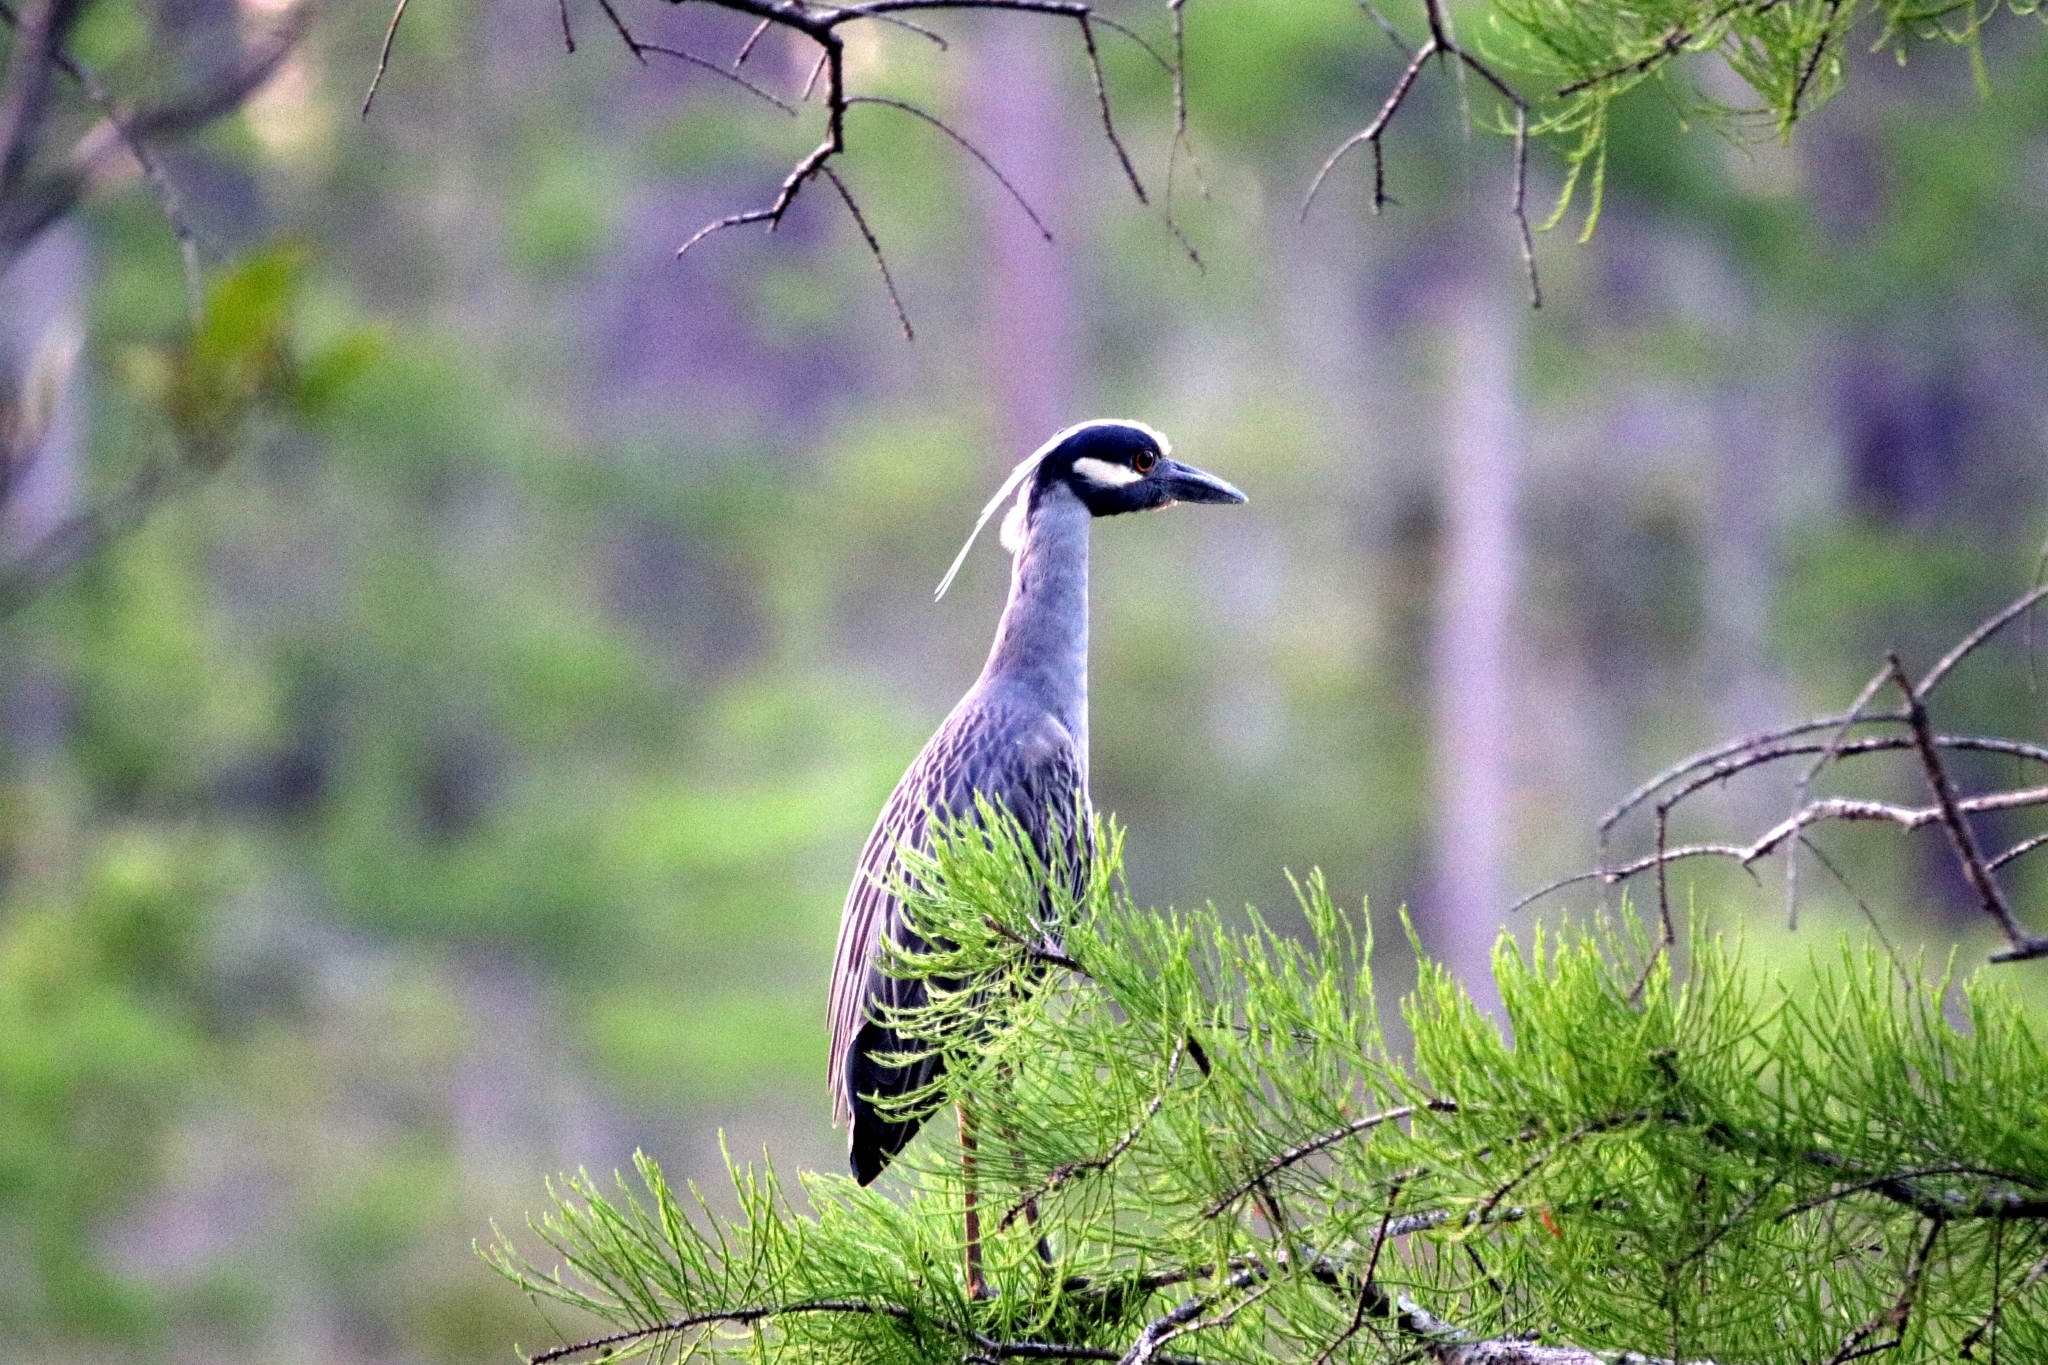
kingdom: Animalia
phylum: Chordata
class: Aves
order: Pelecaniformes
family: Ardeidae
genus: Nyctanassa
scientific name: Nyctanassa violacea
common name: Yellow-crowned night heron
